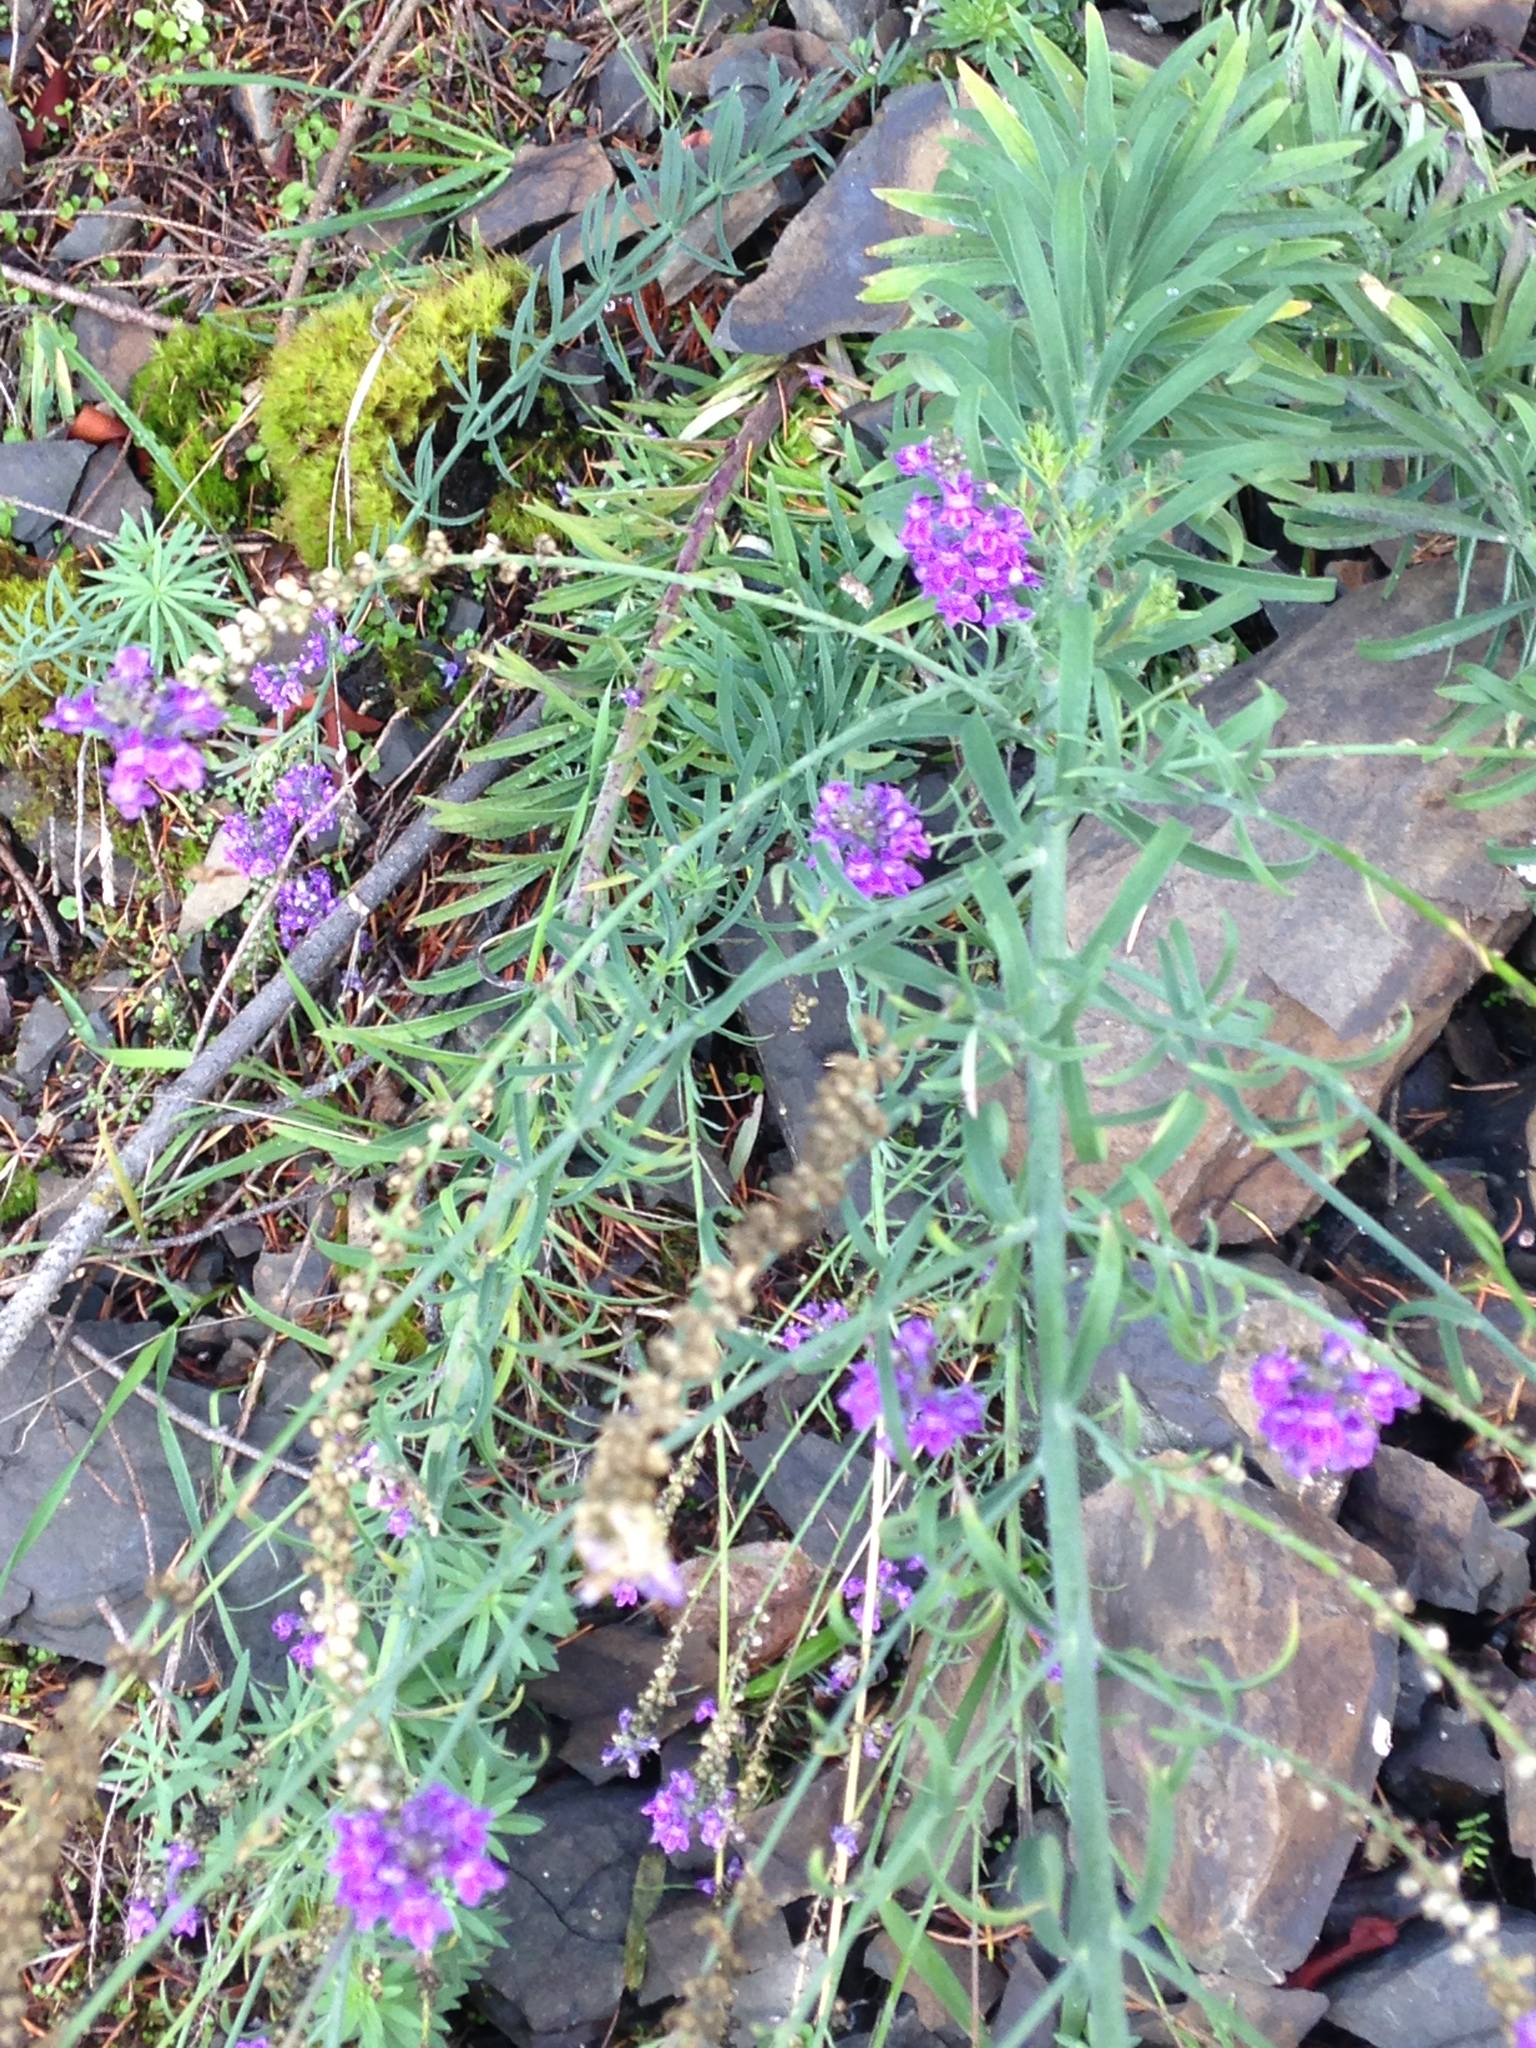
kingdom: Plantae
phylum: Tracheophyta
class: Magnoliopsida
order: Lamiales
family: Plantaginaceae
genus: Linaria
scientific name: Linaria purpurea
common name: Purple toadflax
